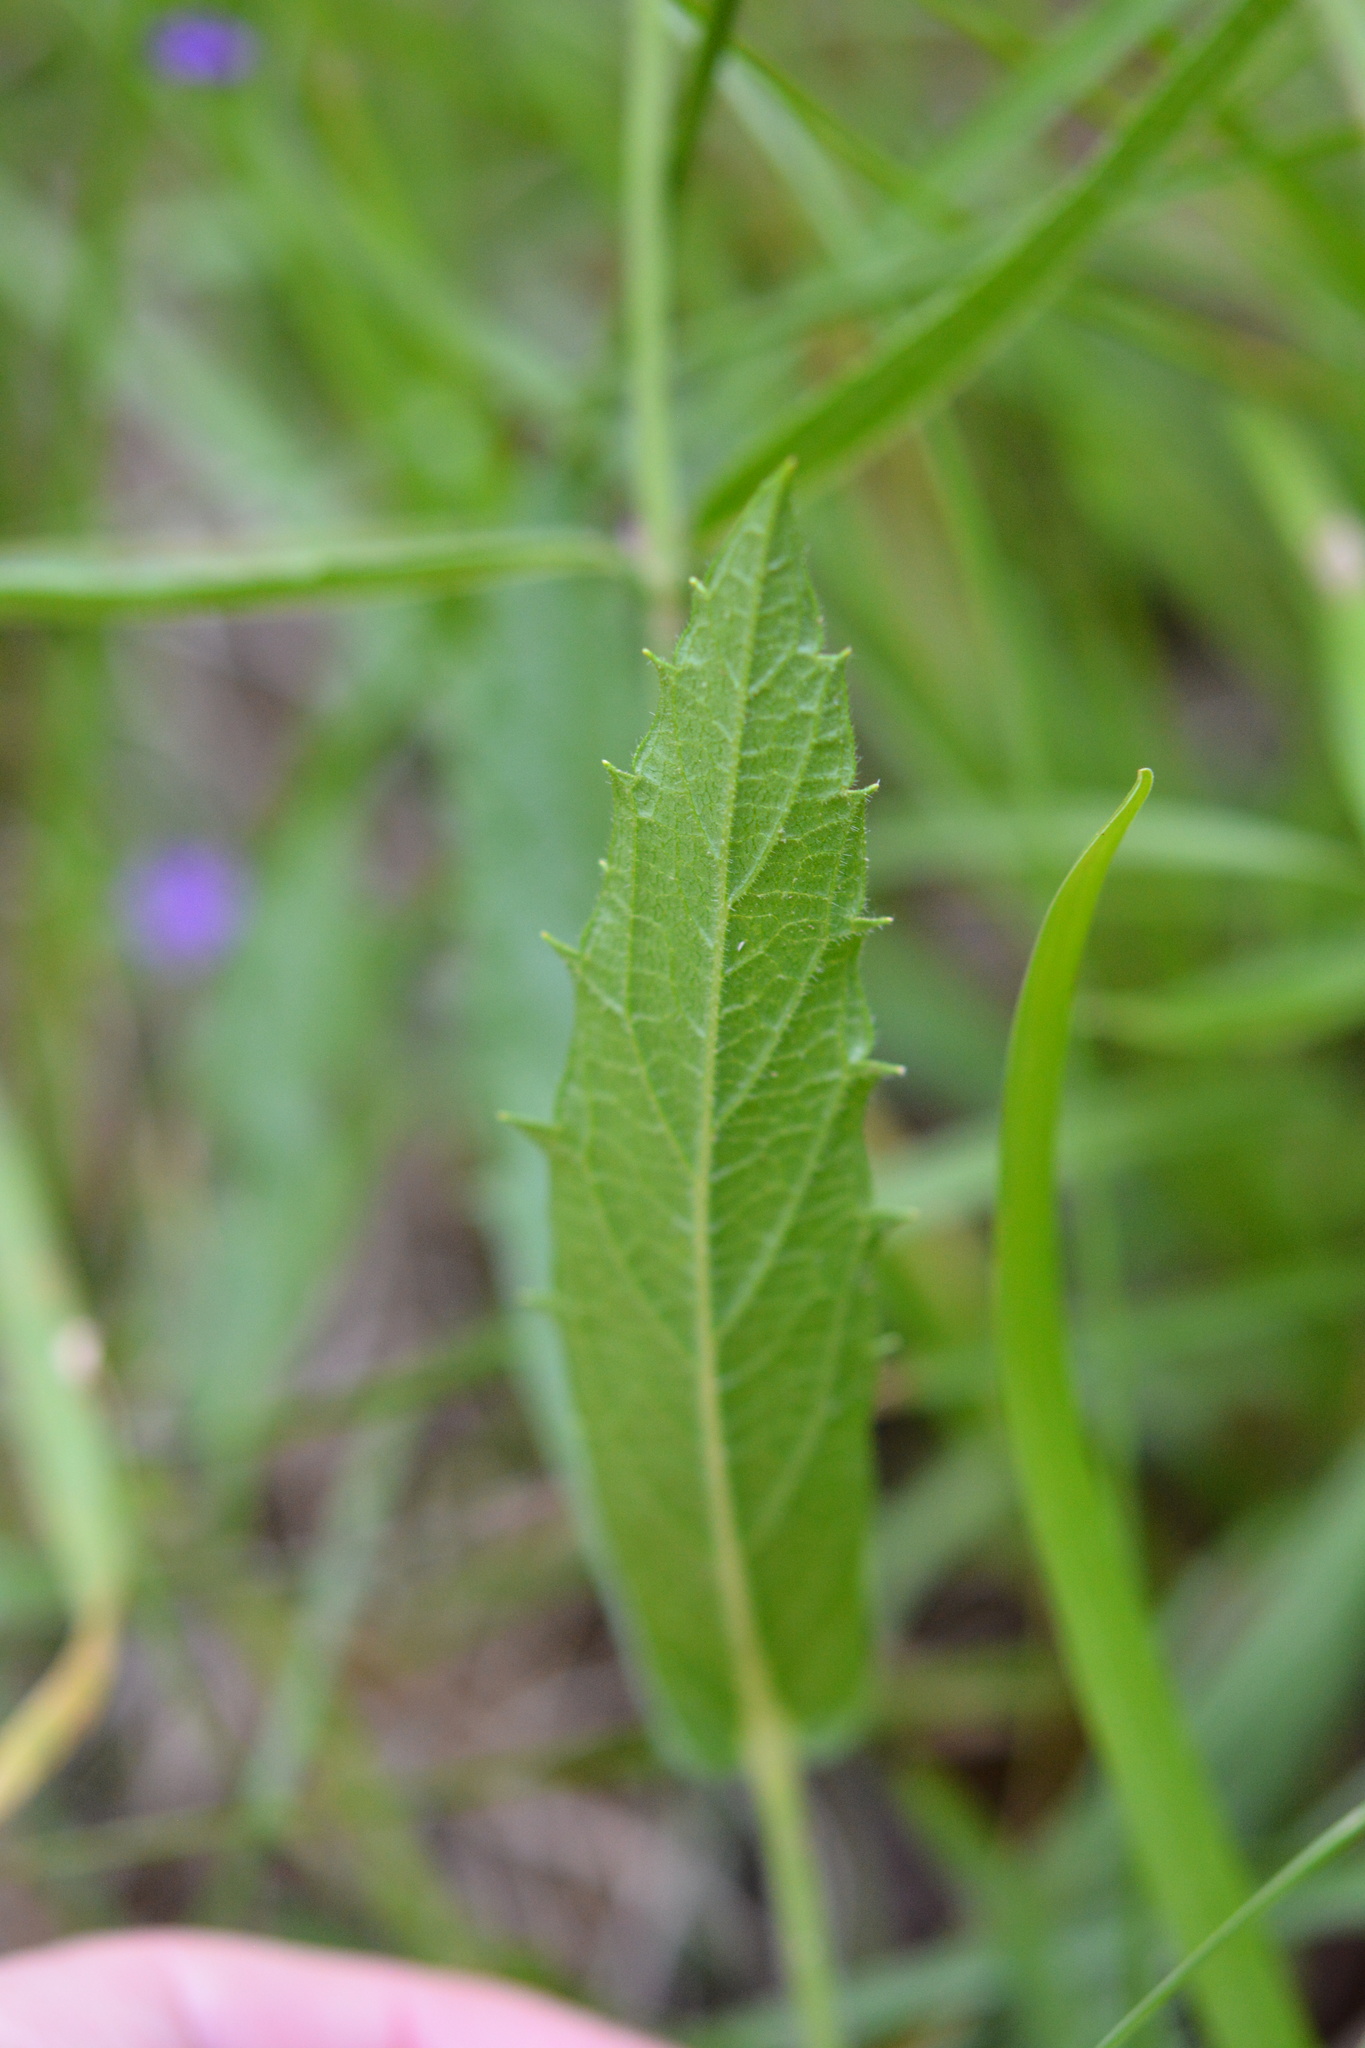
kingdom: Plantae
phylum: Tracheophyta
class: Magnoliopsida
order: Lamiales
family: Verbenaceae
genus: Verbena
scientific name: Verbena rigida
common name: Slender vervain
